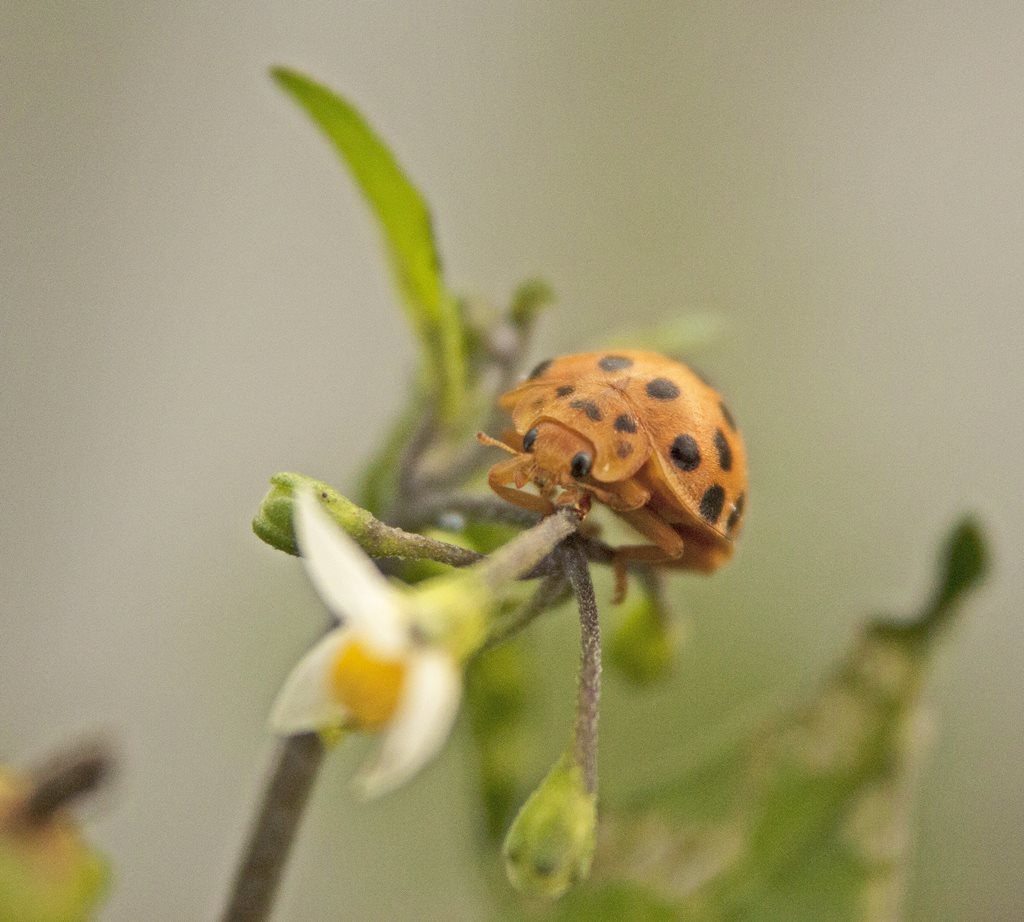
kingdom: Animalia
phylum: Arthropoda
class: Insecta
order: Coleoptera
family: Coccinellidae
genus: Henosepilachna
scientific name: Henosepilachna vigintioctopunctata
